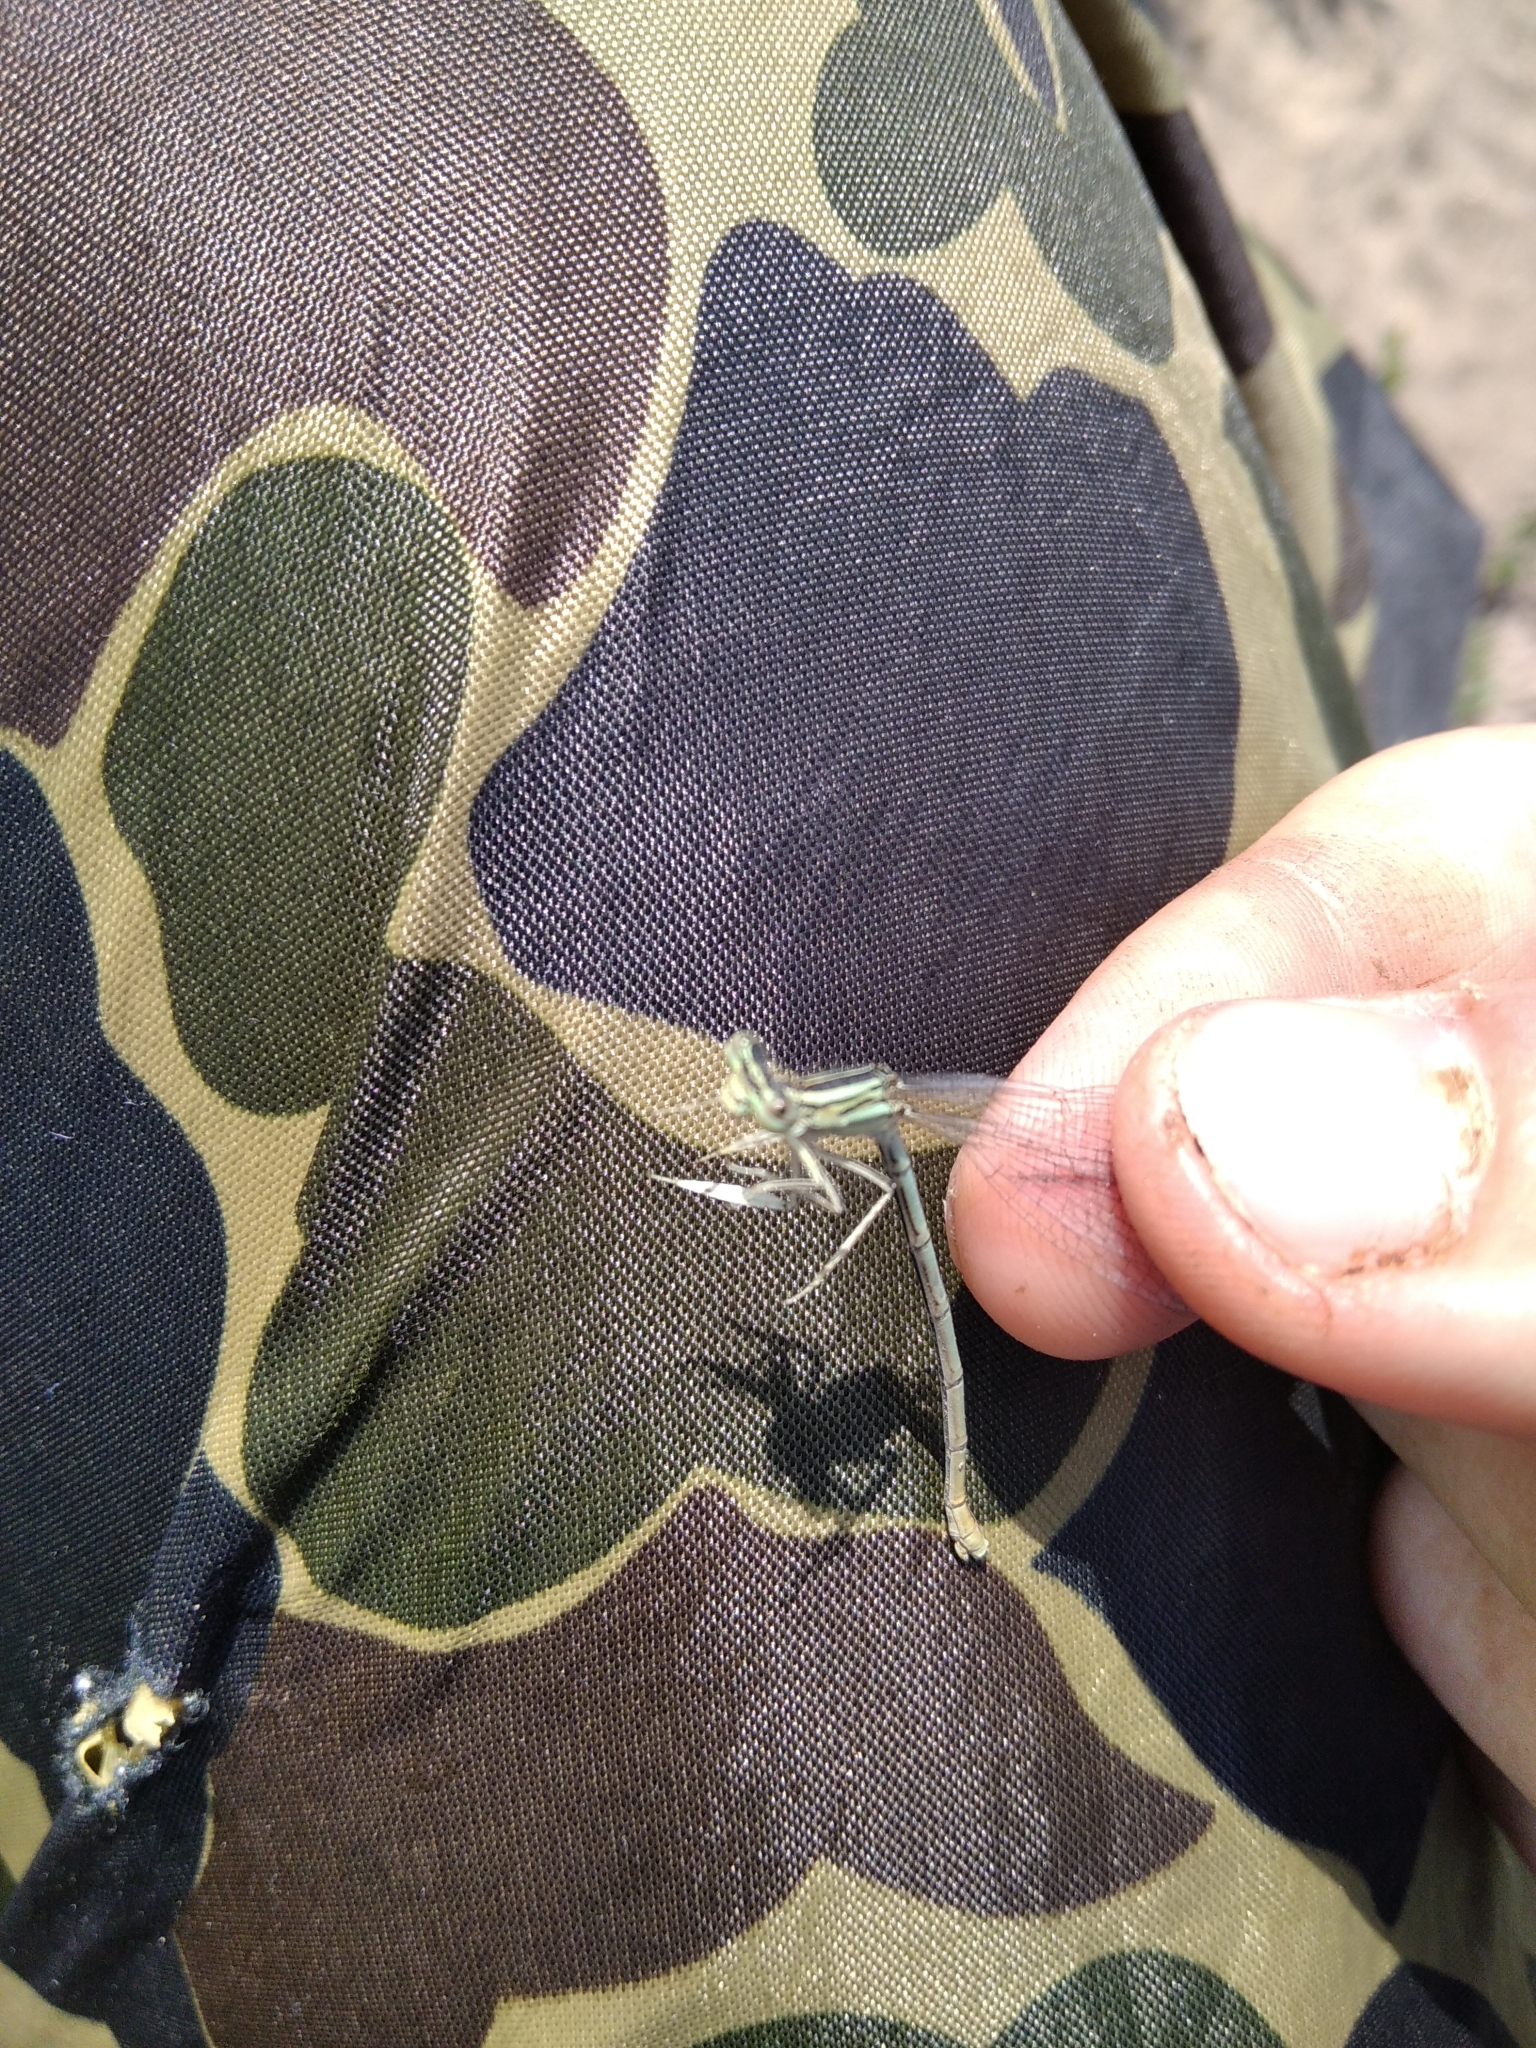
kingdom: Animalia
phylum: Arthropoda
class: Insecta
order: Odonata
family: Platycnemididae
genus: Platycnemis
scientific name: Platycnemis pennipes
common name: White-legged damselfly
